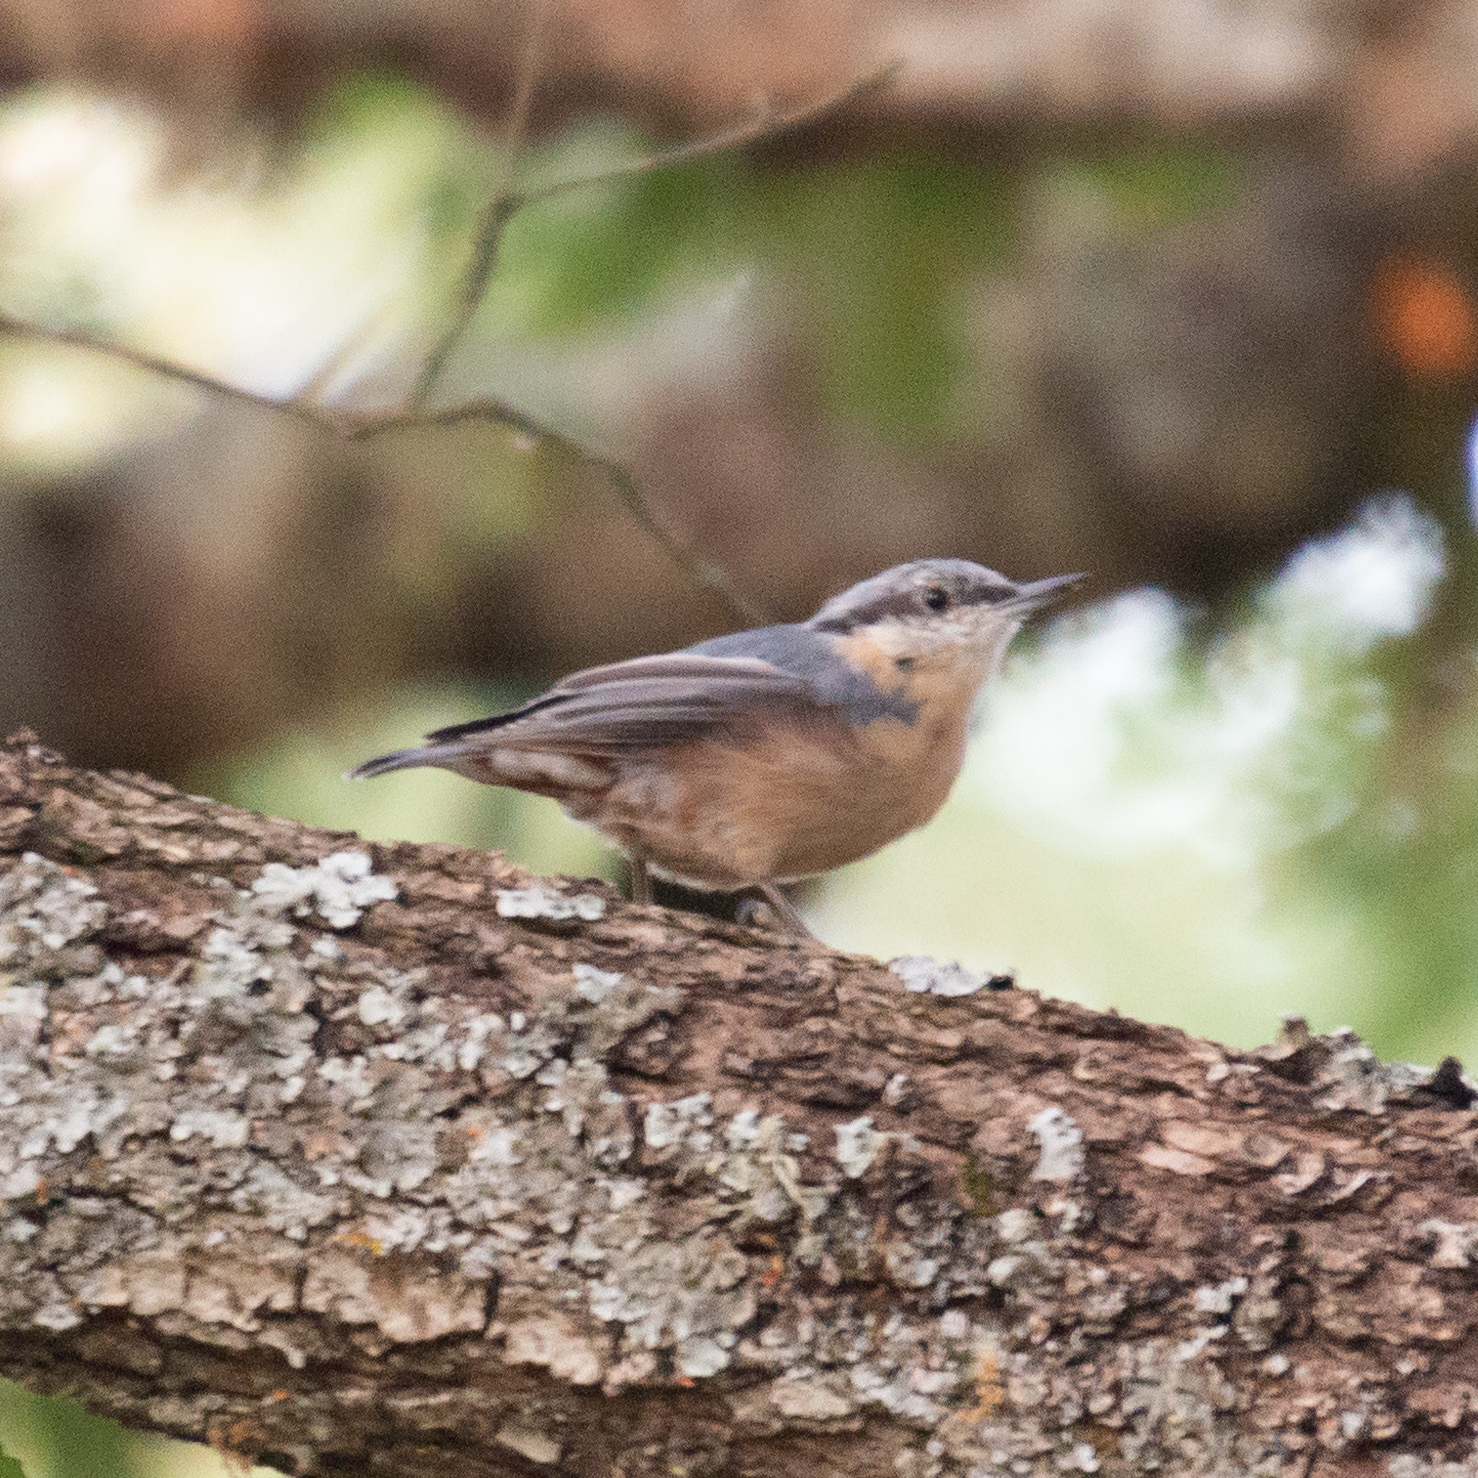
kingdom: Animalia
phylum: Chordata
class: Aves
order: Passeriformes
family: Sittidae
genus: Sitta
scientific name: Sitta europaea
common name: Eurasian nuthatch
